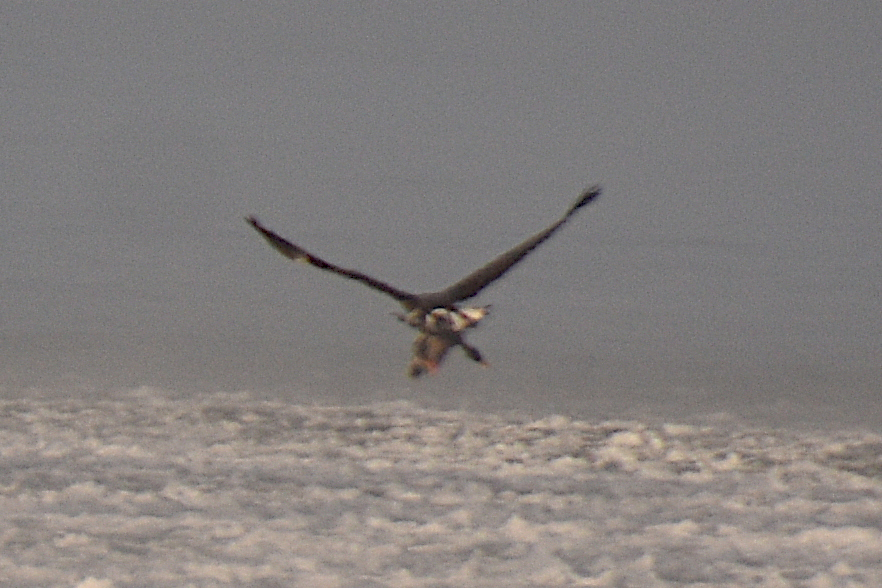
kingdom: Animalia
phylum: Chordata
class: Aves
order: Accipitriformes
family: Accipitridae
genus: Haliaeetus
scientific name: Haliaeetus leucocephalus
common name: Bald eagle
